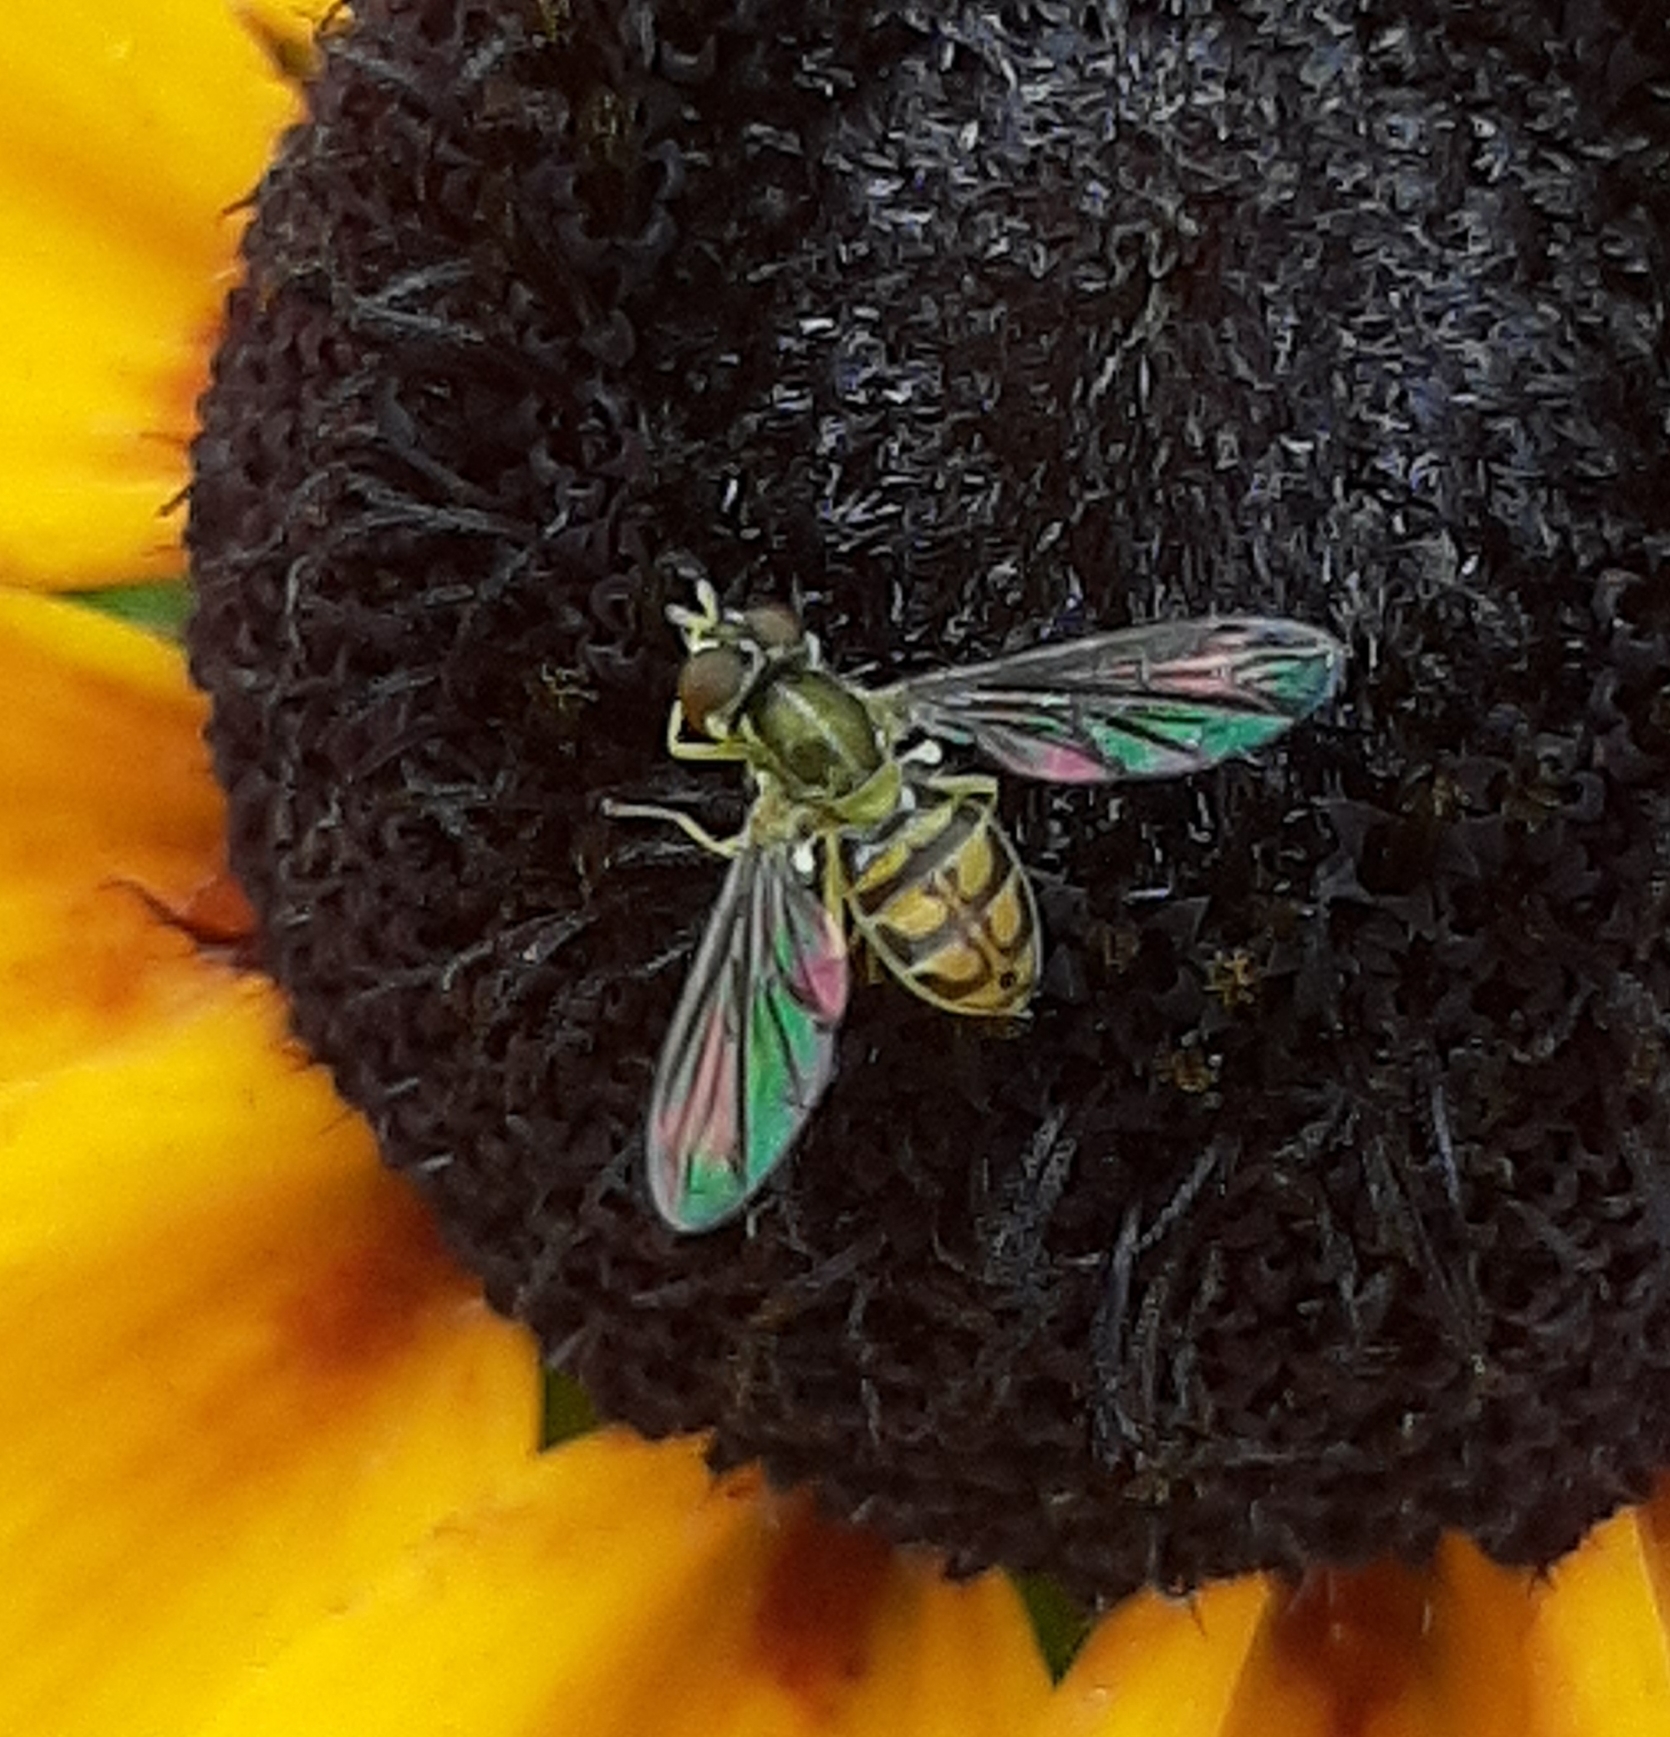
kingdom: Animalia
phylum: Arthropoda
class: Insecta
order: Diptera
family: Syrphidae
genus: Toxomerus
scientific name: Toxomerus marginatus
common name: Syrphid fly
